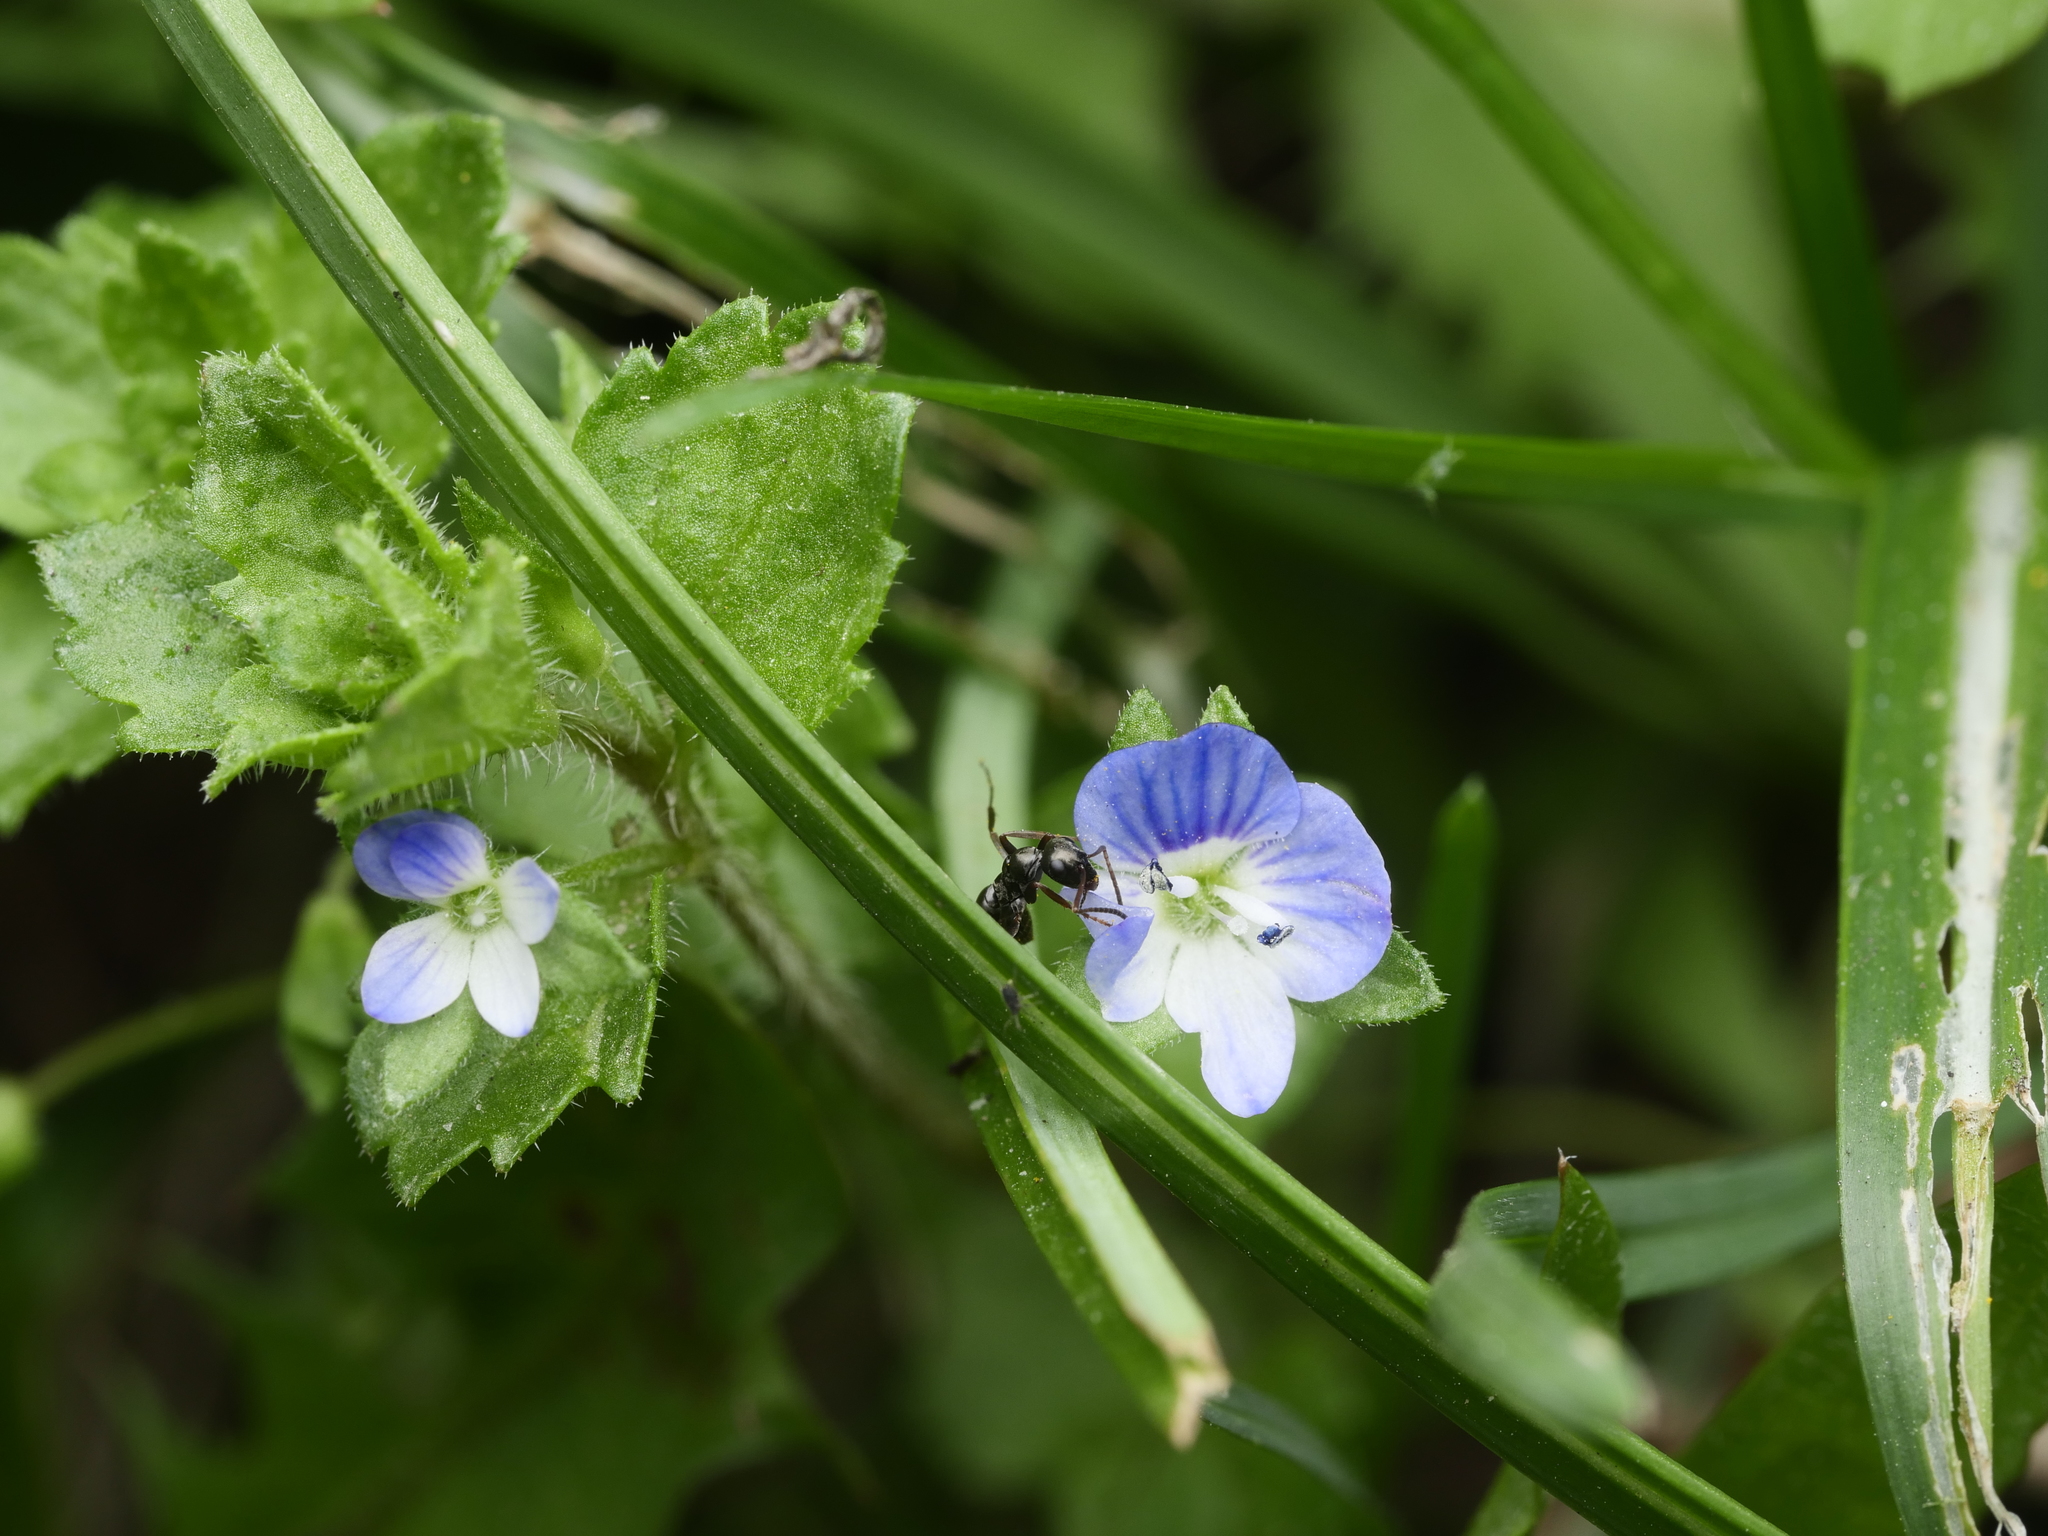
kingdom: Plantae
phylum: Tracheophyta
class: Magnoliopsida
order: Lamiales
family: Plantaginaceae
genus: Veronica
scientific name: Veronica persica
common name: Common field-speedwell
